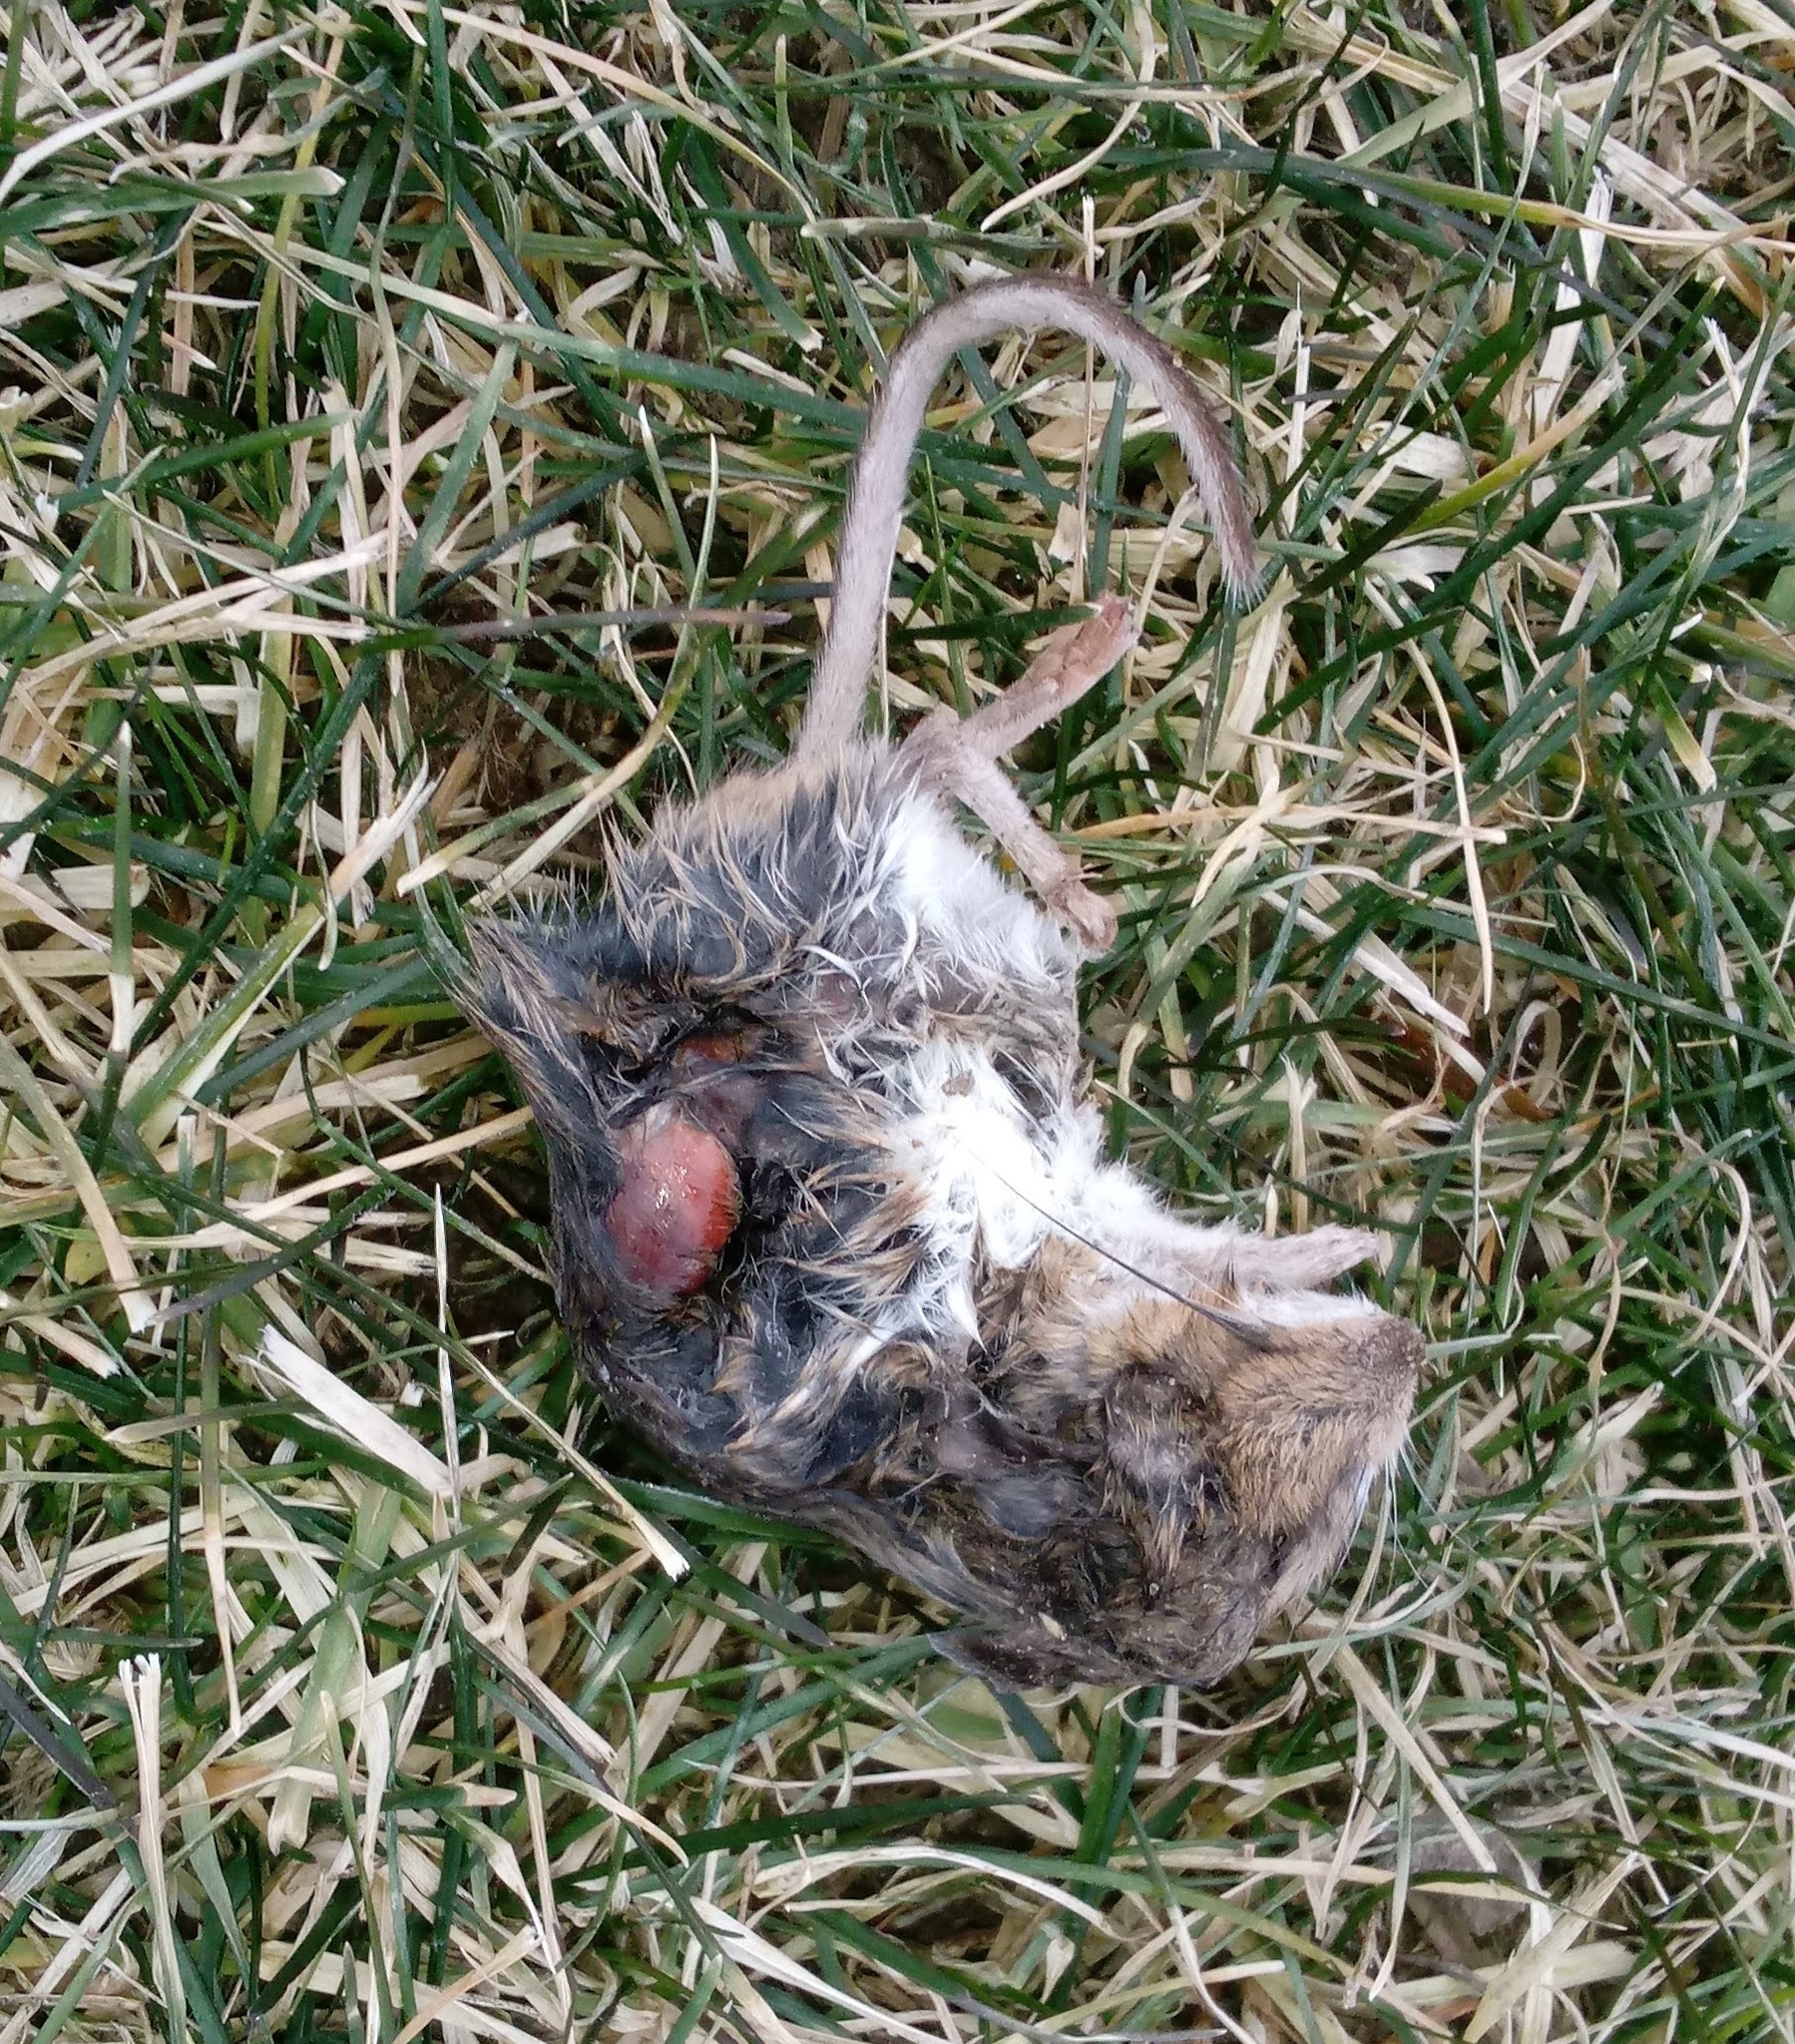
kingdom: Animalia
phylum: Chordata
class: Mammalia
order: Rodentia
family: Cricetidae
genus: Peromyscus
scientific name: Peromyscus leucopus
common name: White-footed deermouse
